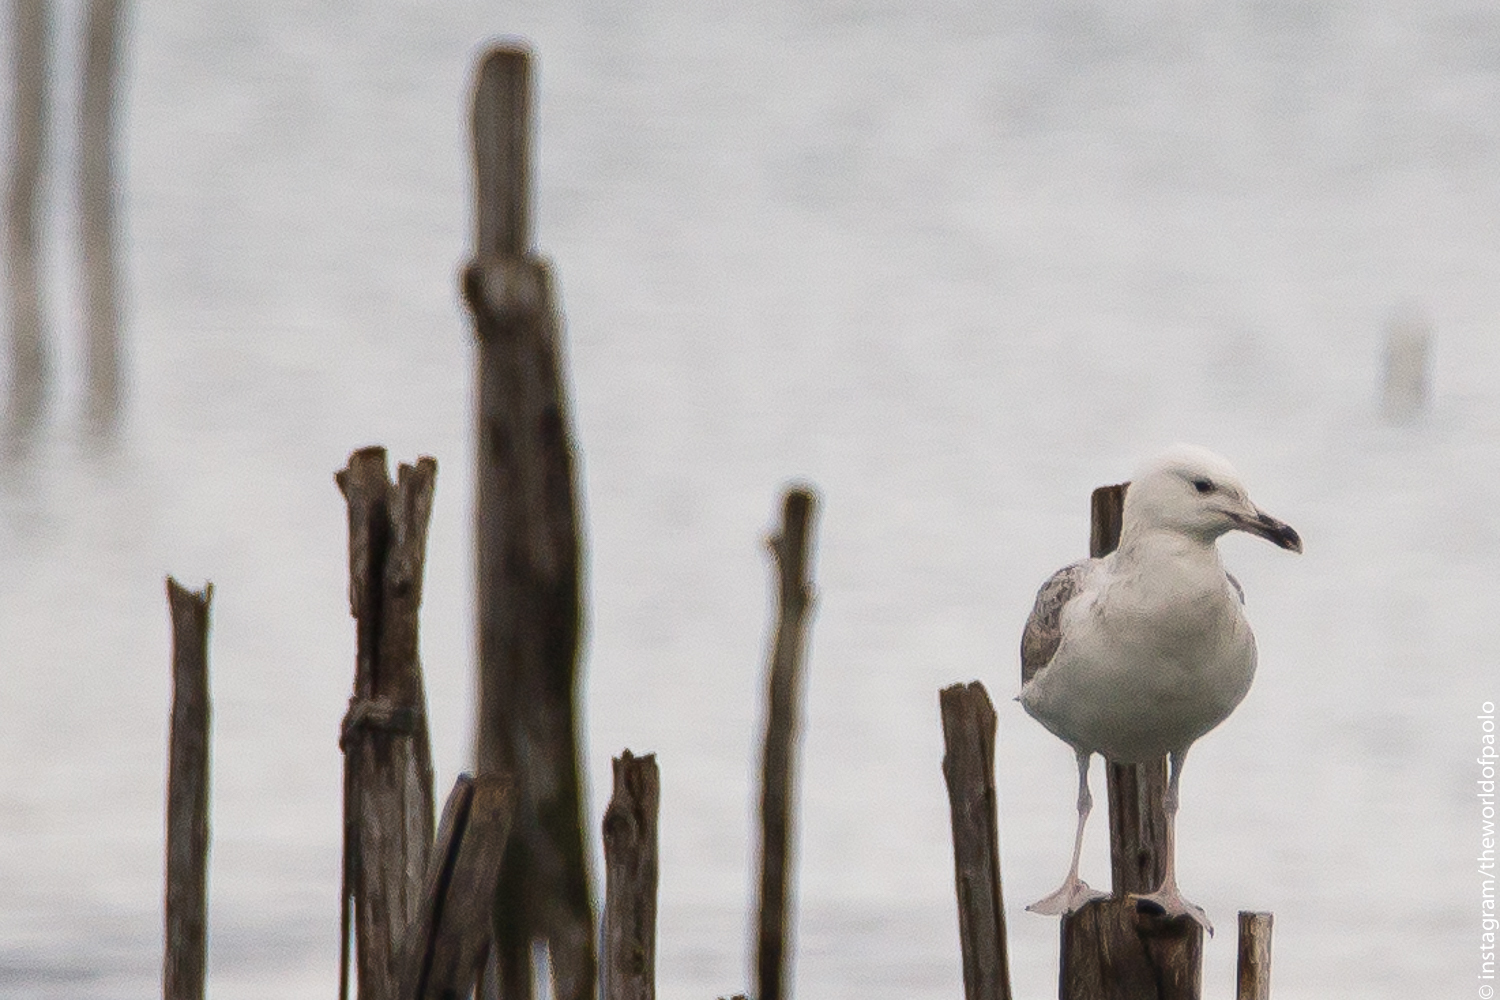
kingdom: Animalia
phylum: Chordata
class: Aves
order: Charadriiformes
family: Laridae
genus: Larus
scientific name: Larus cachinnans
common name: Caspian gull
